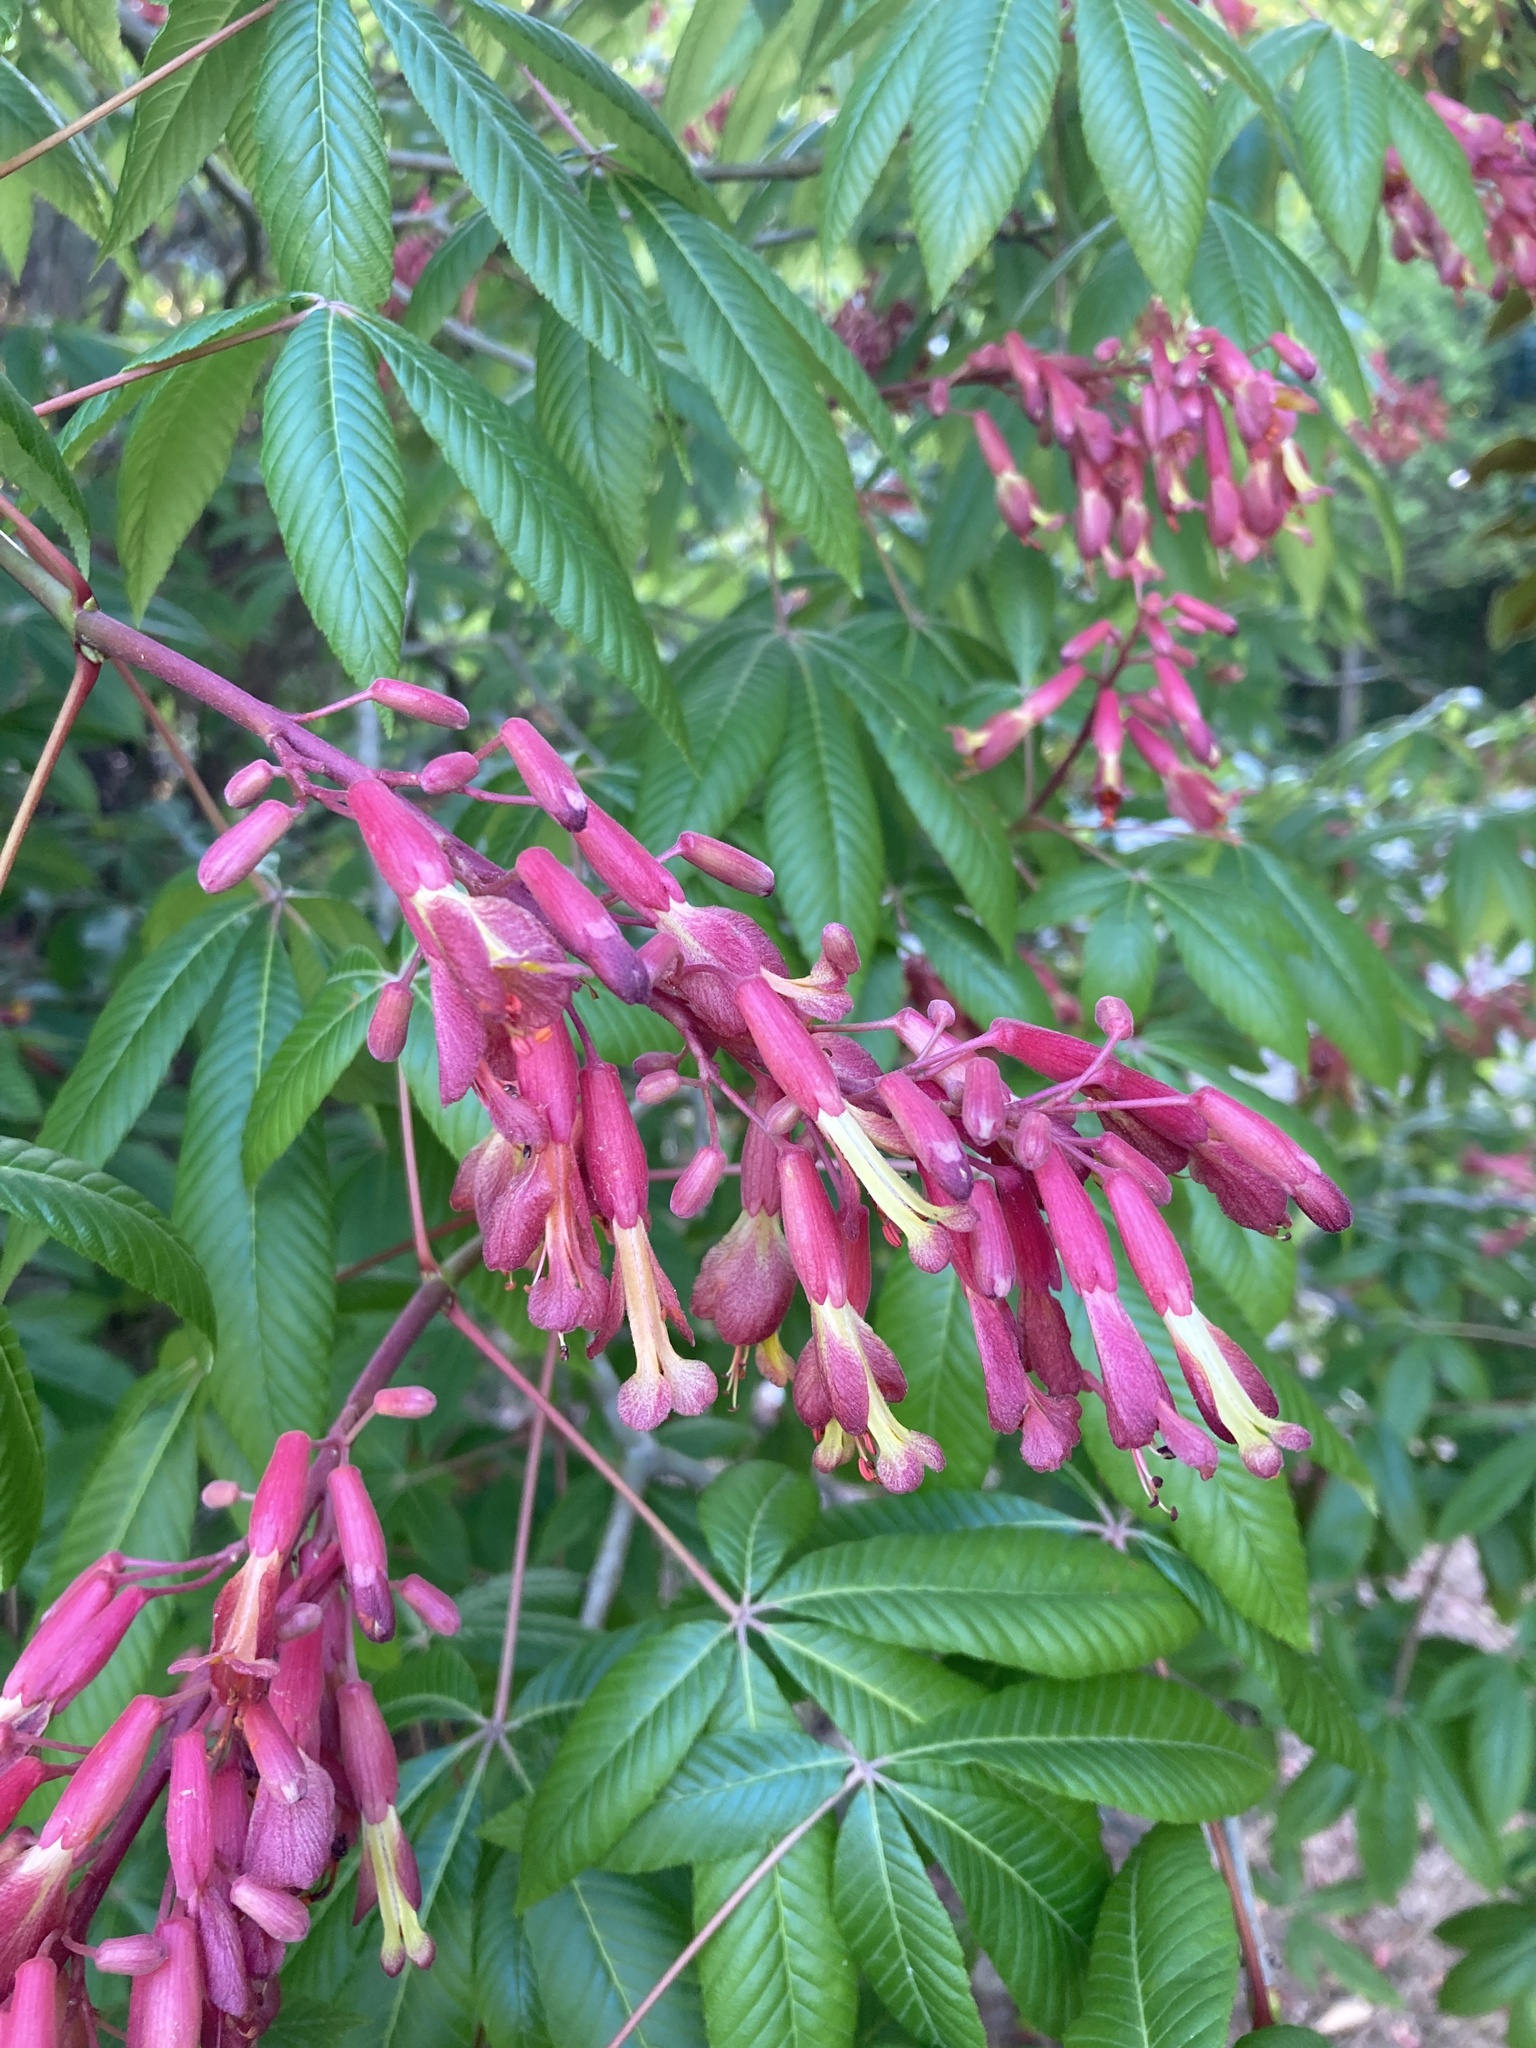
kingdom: Plantae
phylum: Tracheophyta
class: Magnoliopsida
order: Sapindales
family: Sapindaceae
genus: Aesculus
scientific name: Aesculus pavia
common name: Red buckeye
